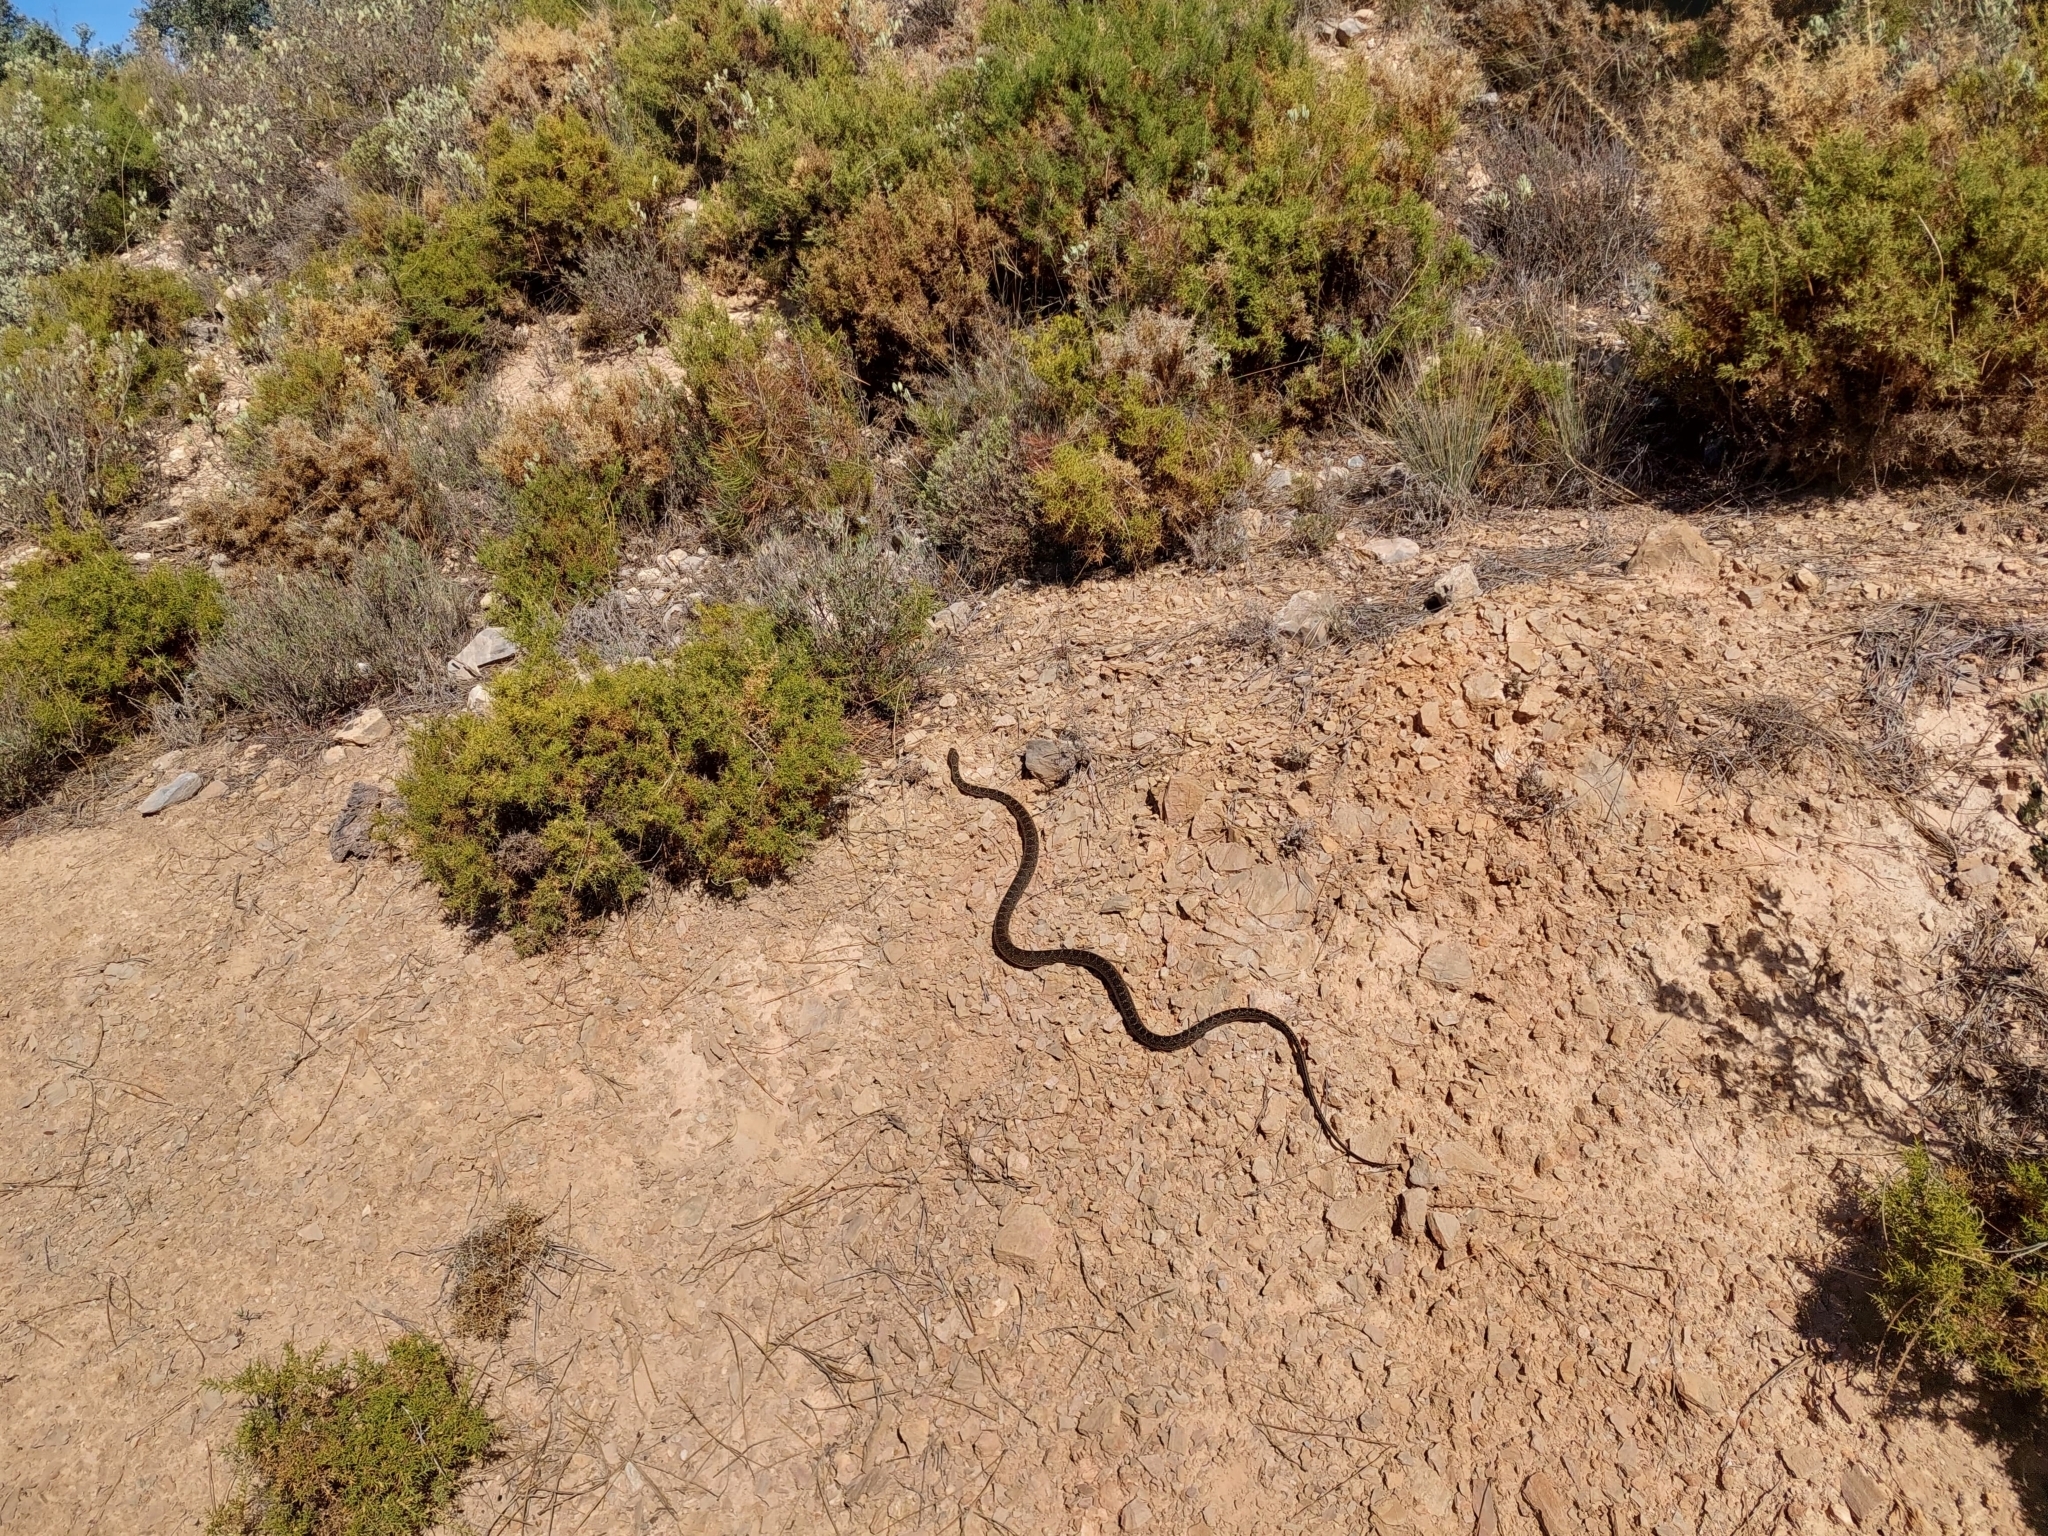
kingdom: Animalia
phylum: Chordata
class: Squamata
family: Colubridae
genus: Hemorrhois
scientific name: Hemorrhois hippocrepis
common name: Horseshoe whip snake
